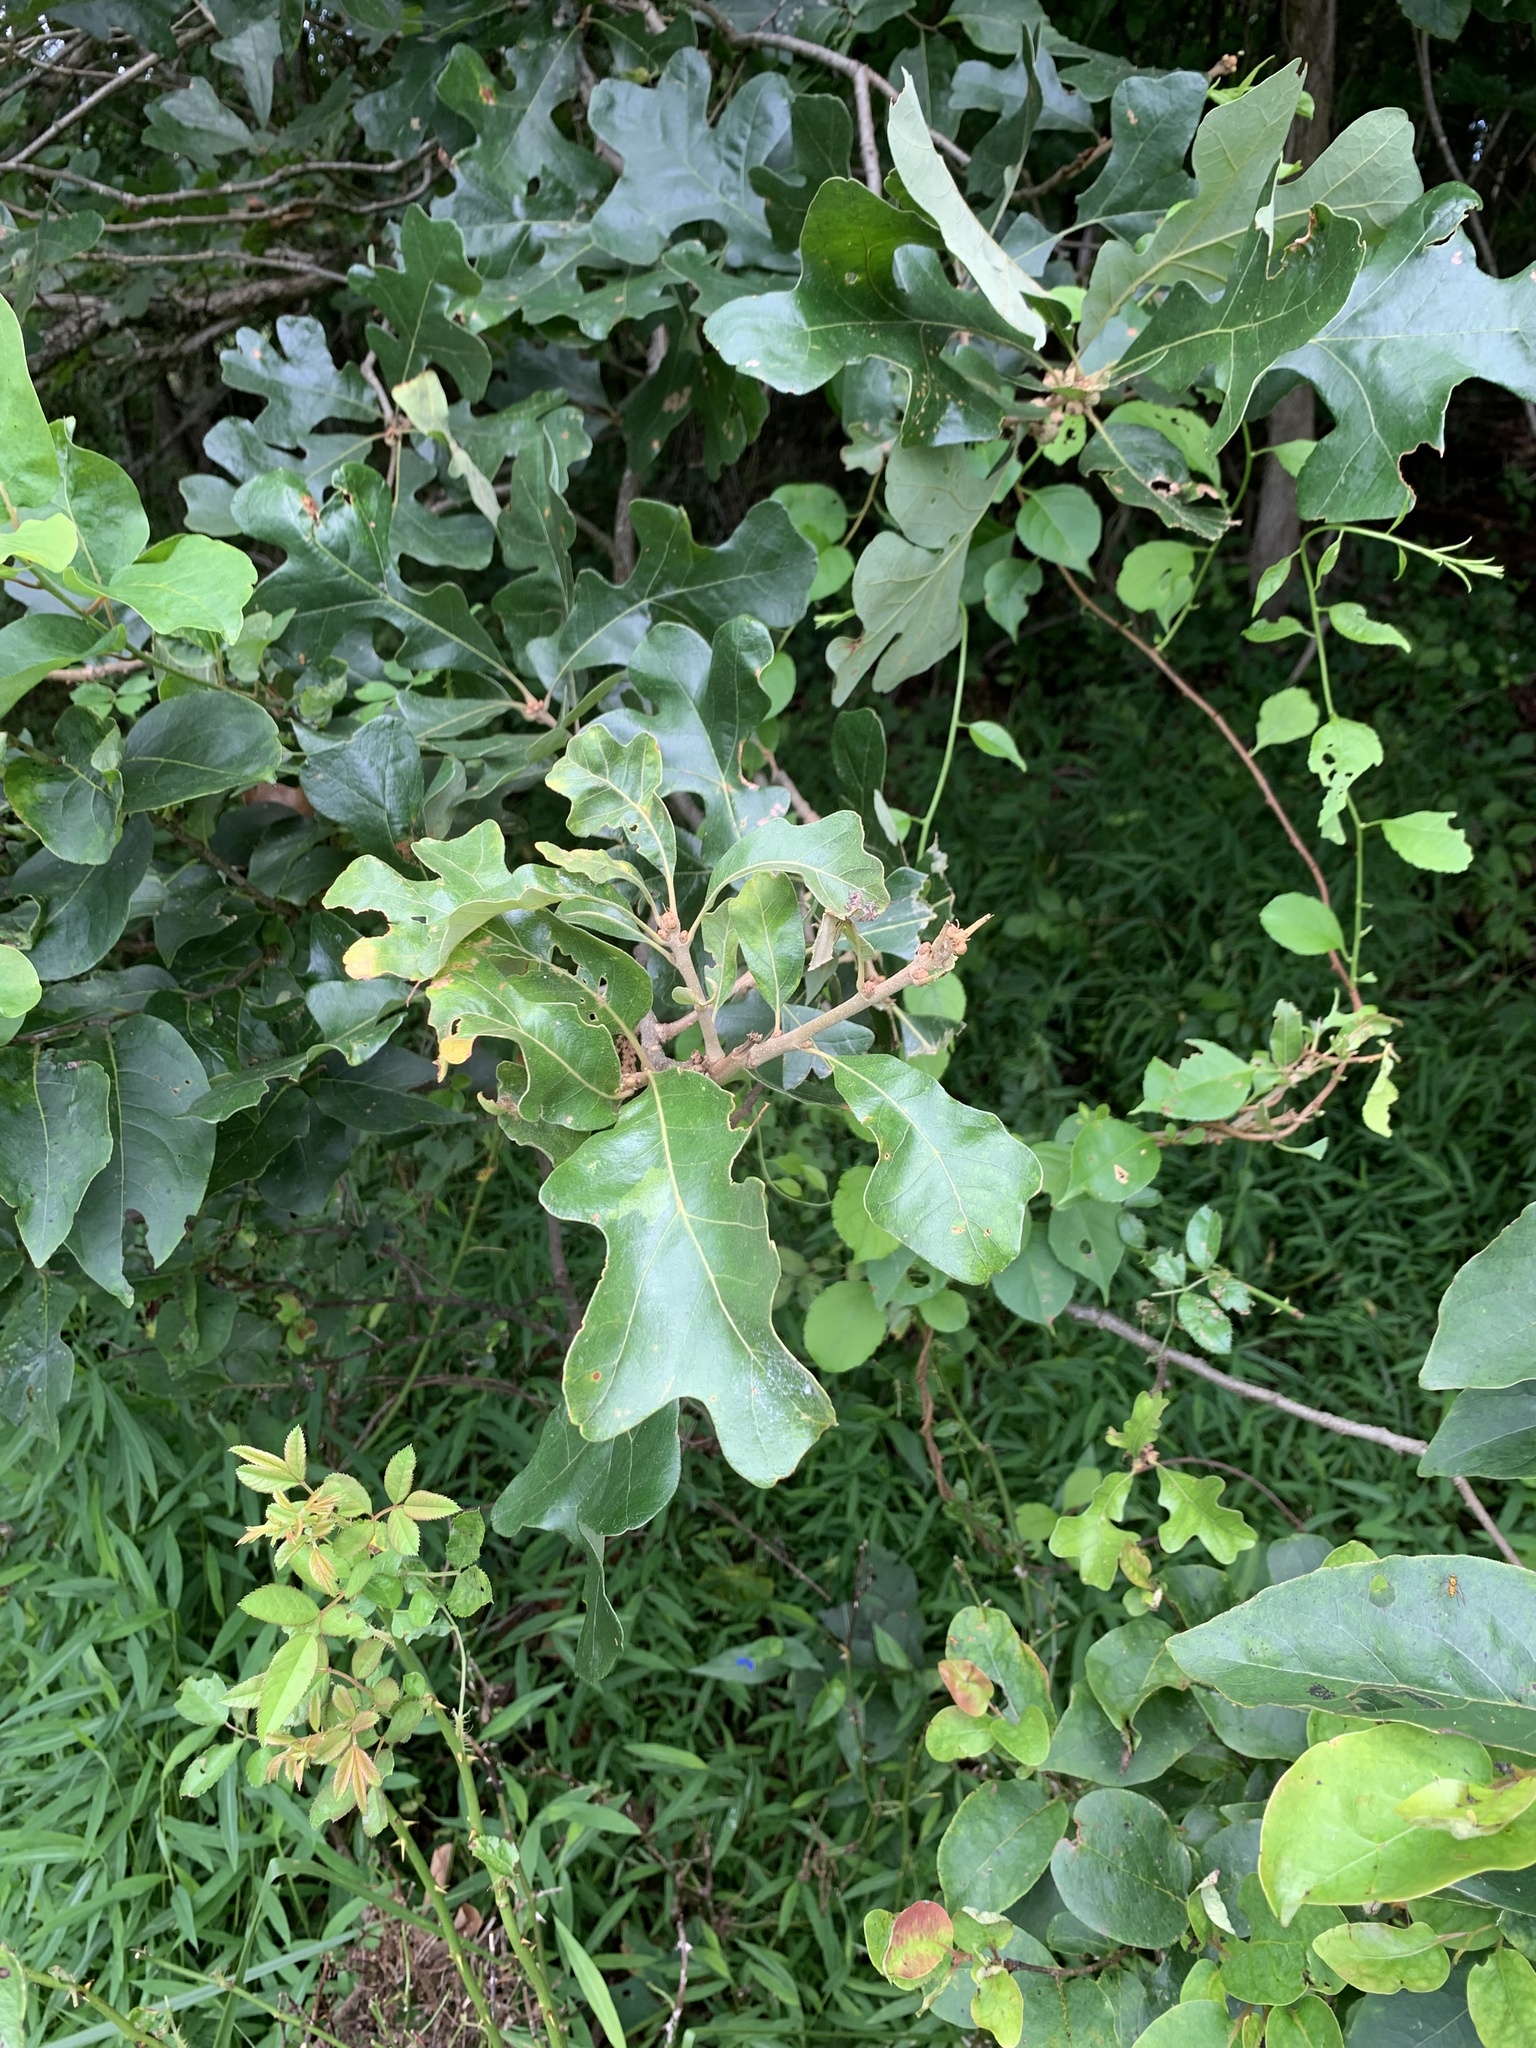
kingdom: Plantae
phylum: Tracheophyta
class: Magnoliopsida
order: Fagales
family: Fagaceae
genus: Quercus
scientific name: Quercus stellata
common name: Post oak
